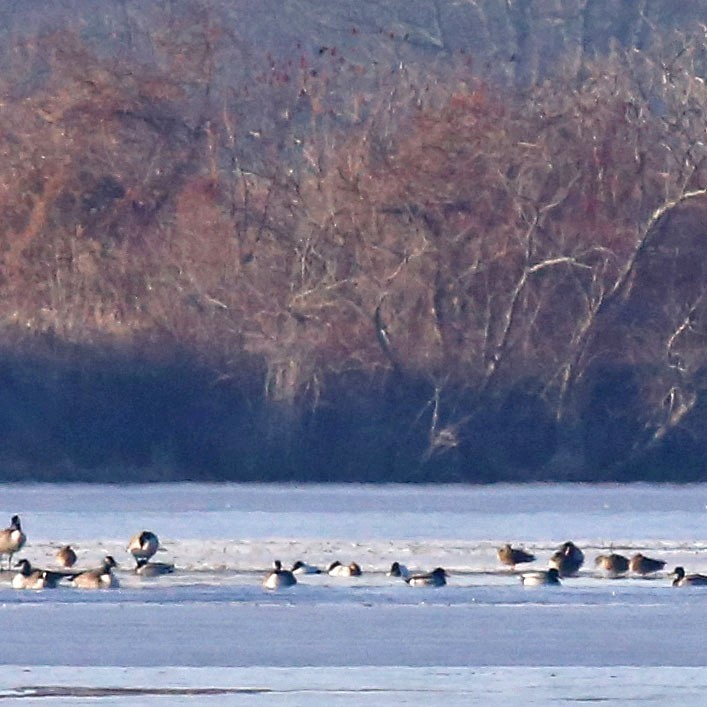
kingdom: Animalia
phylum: Chordata
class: Aves
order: Anseriformes
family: Anatidae
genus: Aythya
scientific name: Aythya valisineria
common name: Canvasback
